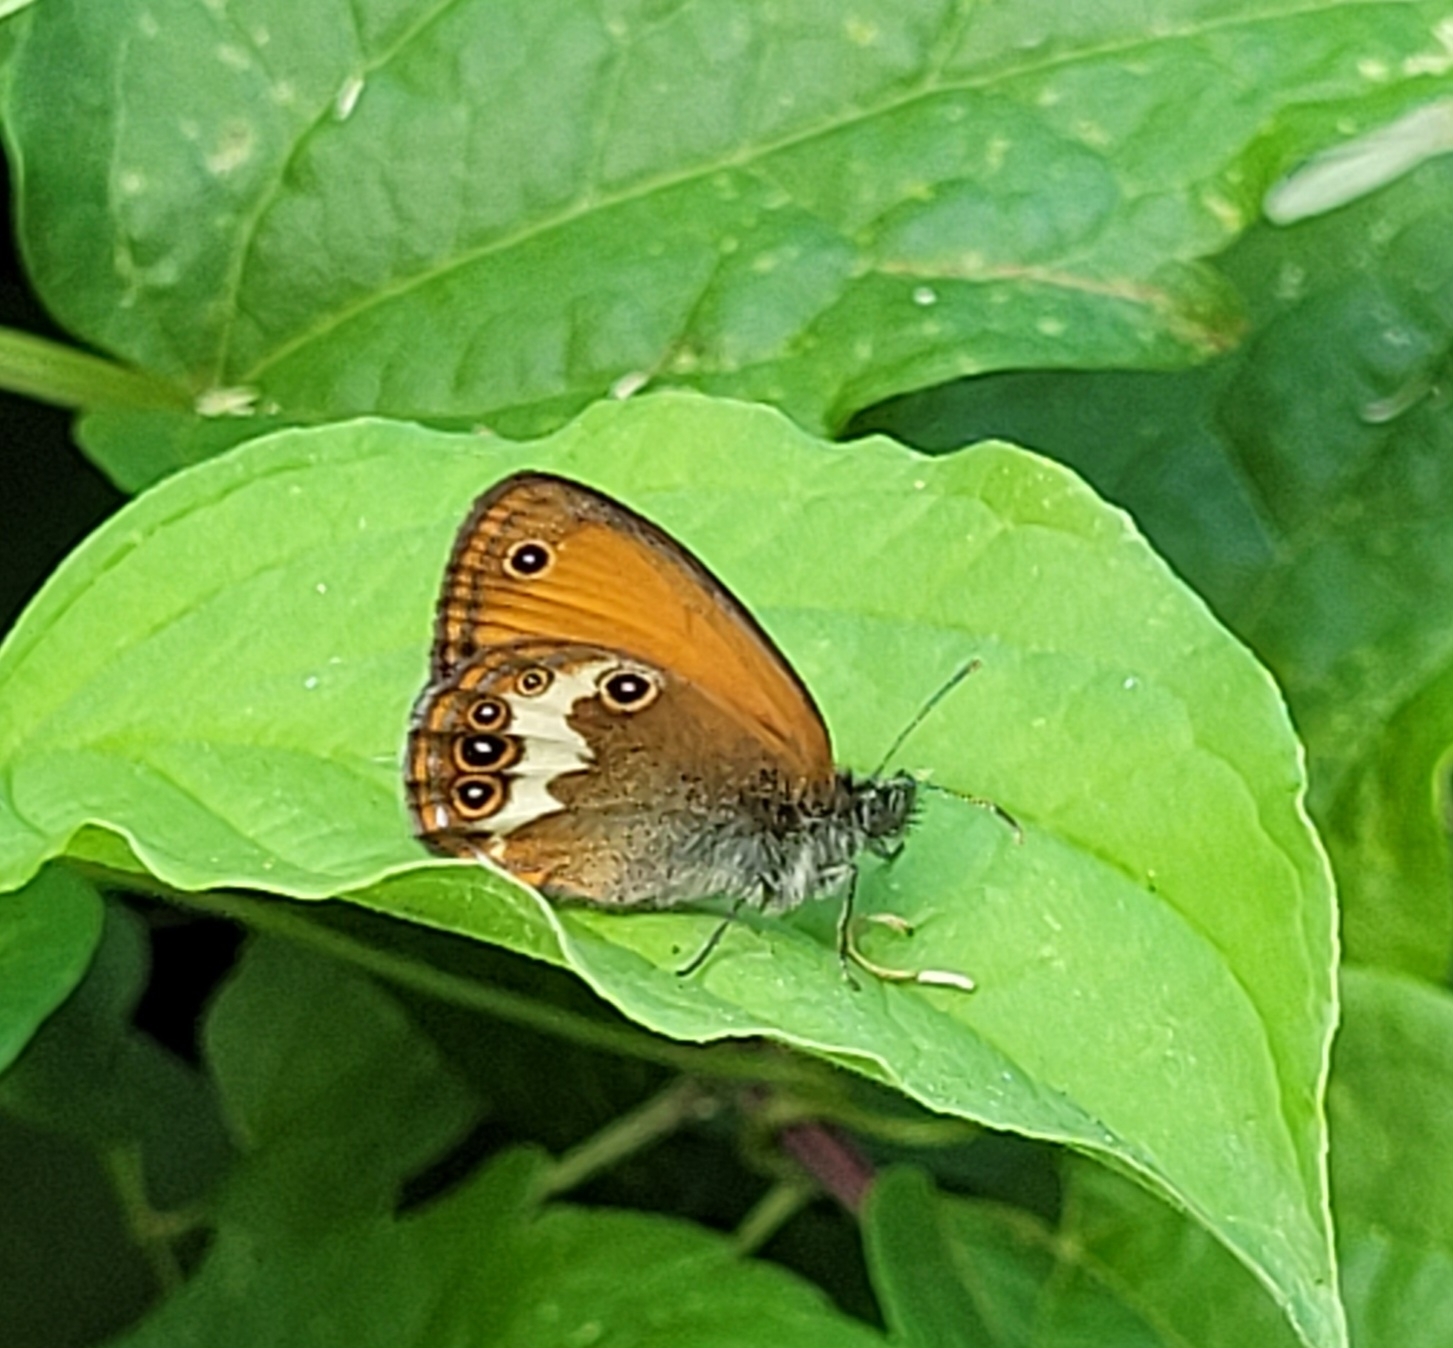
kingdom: Animalia
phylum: Arthropoda
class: Insecta
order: Lepidoptera
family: Nymphalidae
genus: Coenonympha
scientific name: Coenonympha arcania
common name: Pearly heath
